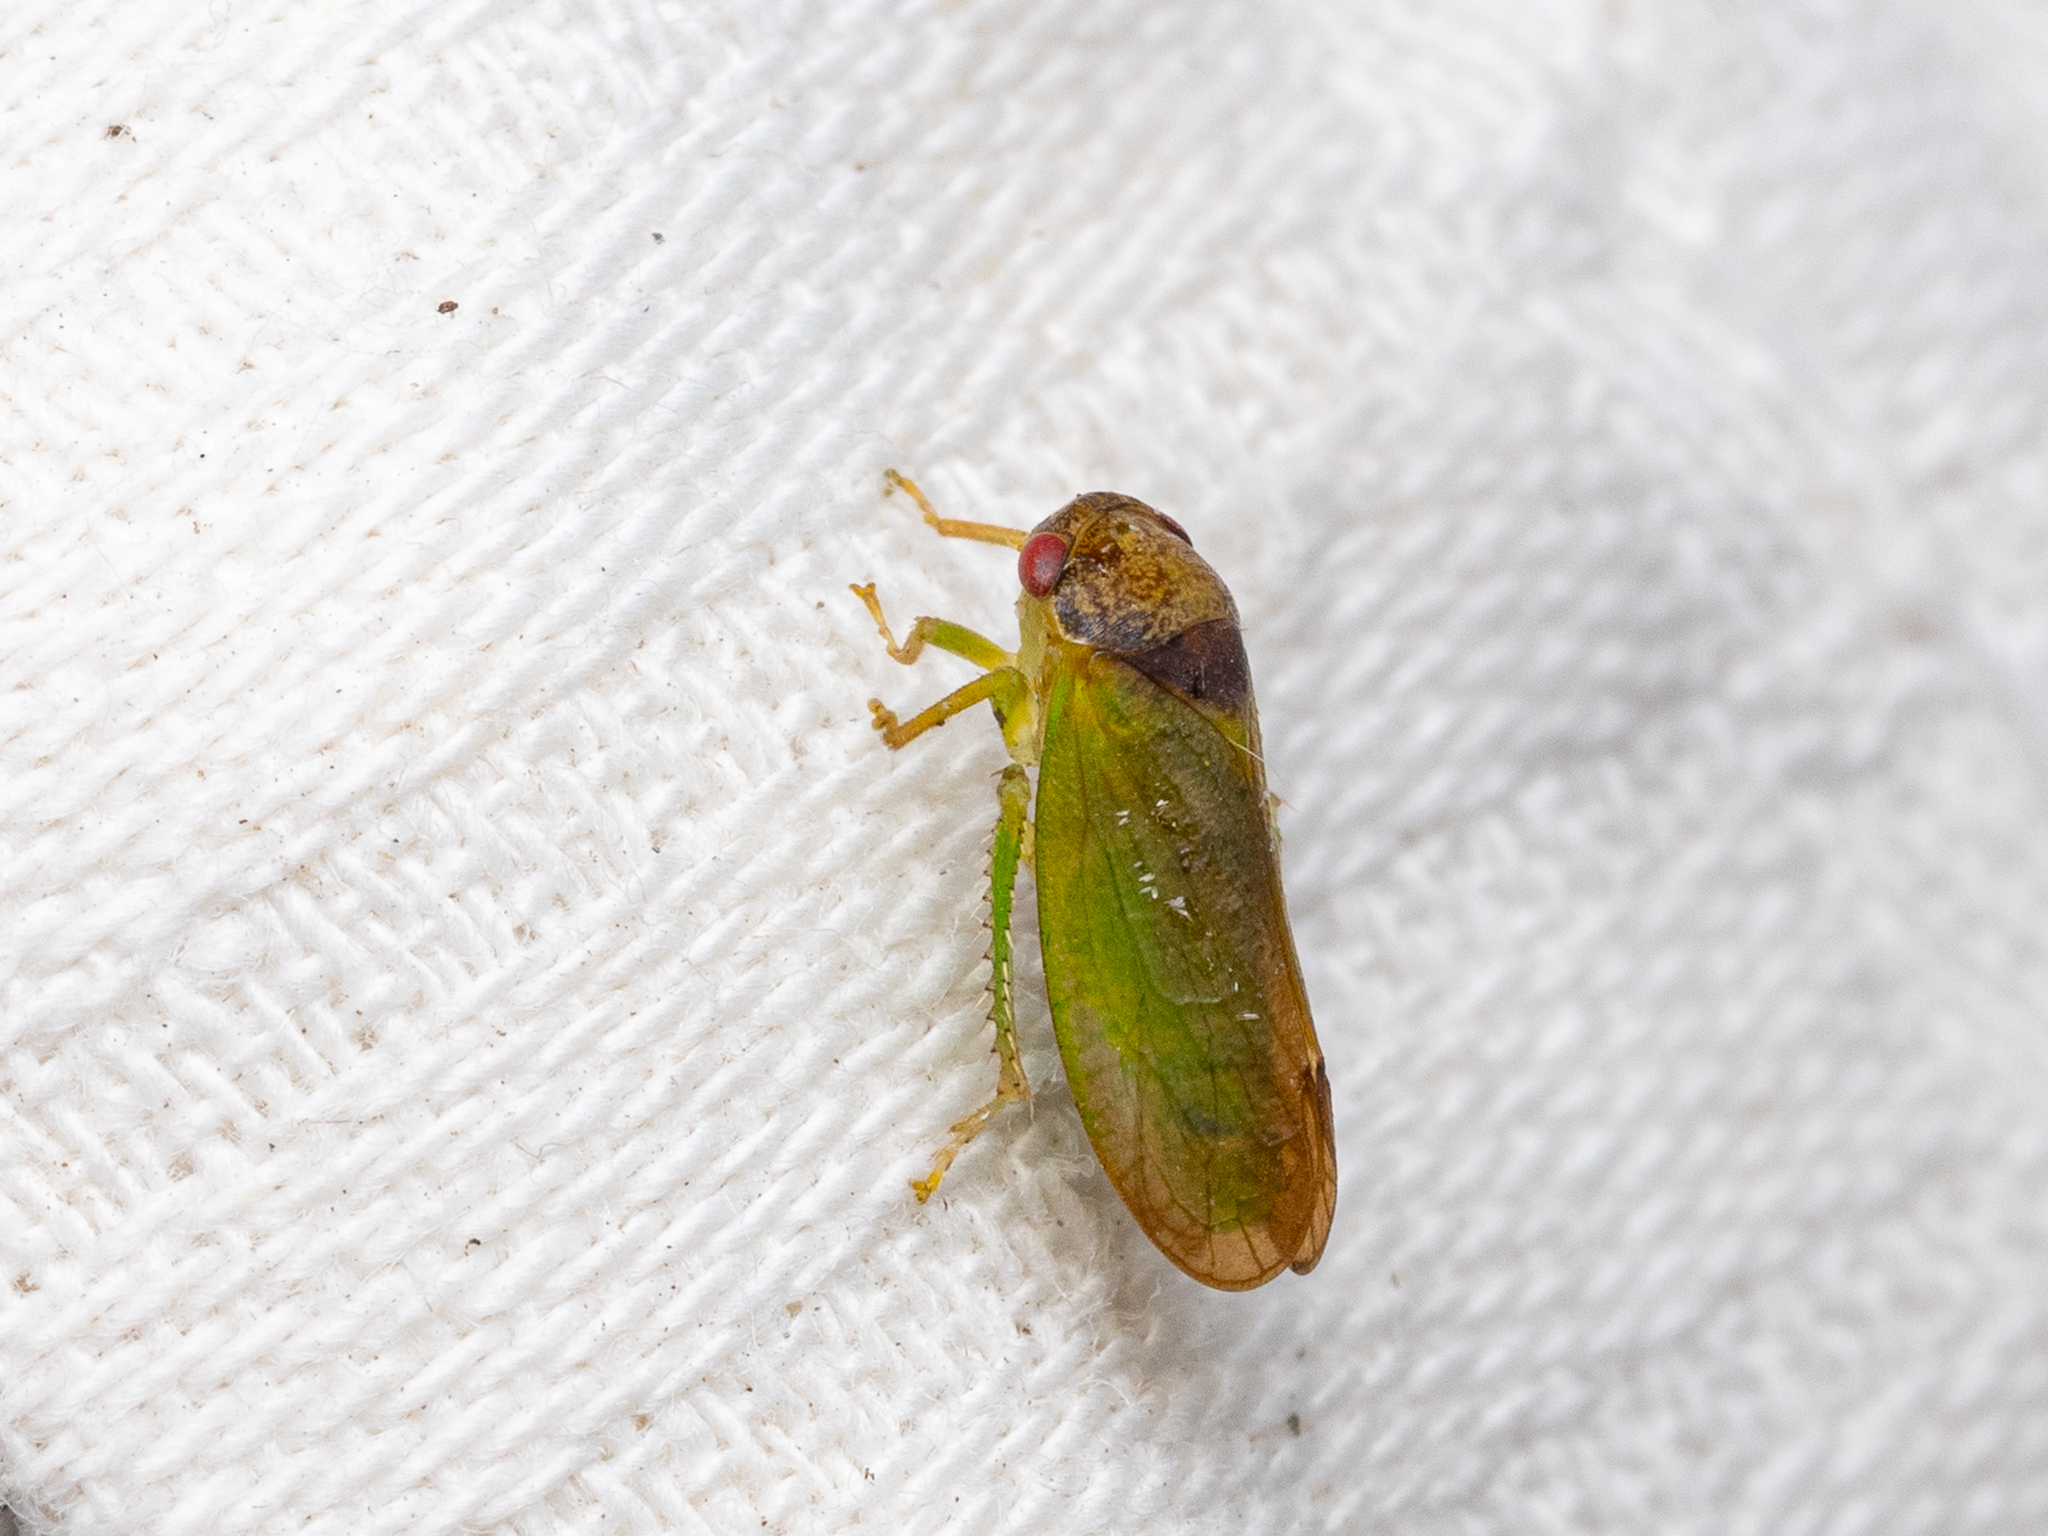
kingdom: Animalia
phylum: Arthropoda
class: Insecta
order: Hemiptera
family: Cicadellidae
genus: Iassus
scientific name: Iassus lanio
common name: Leafhopper
